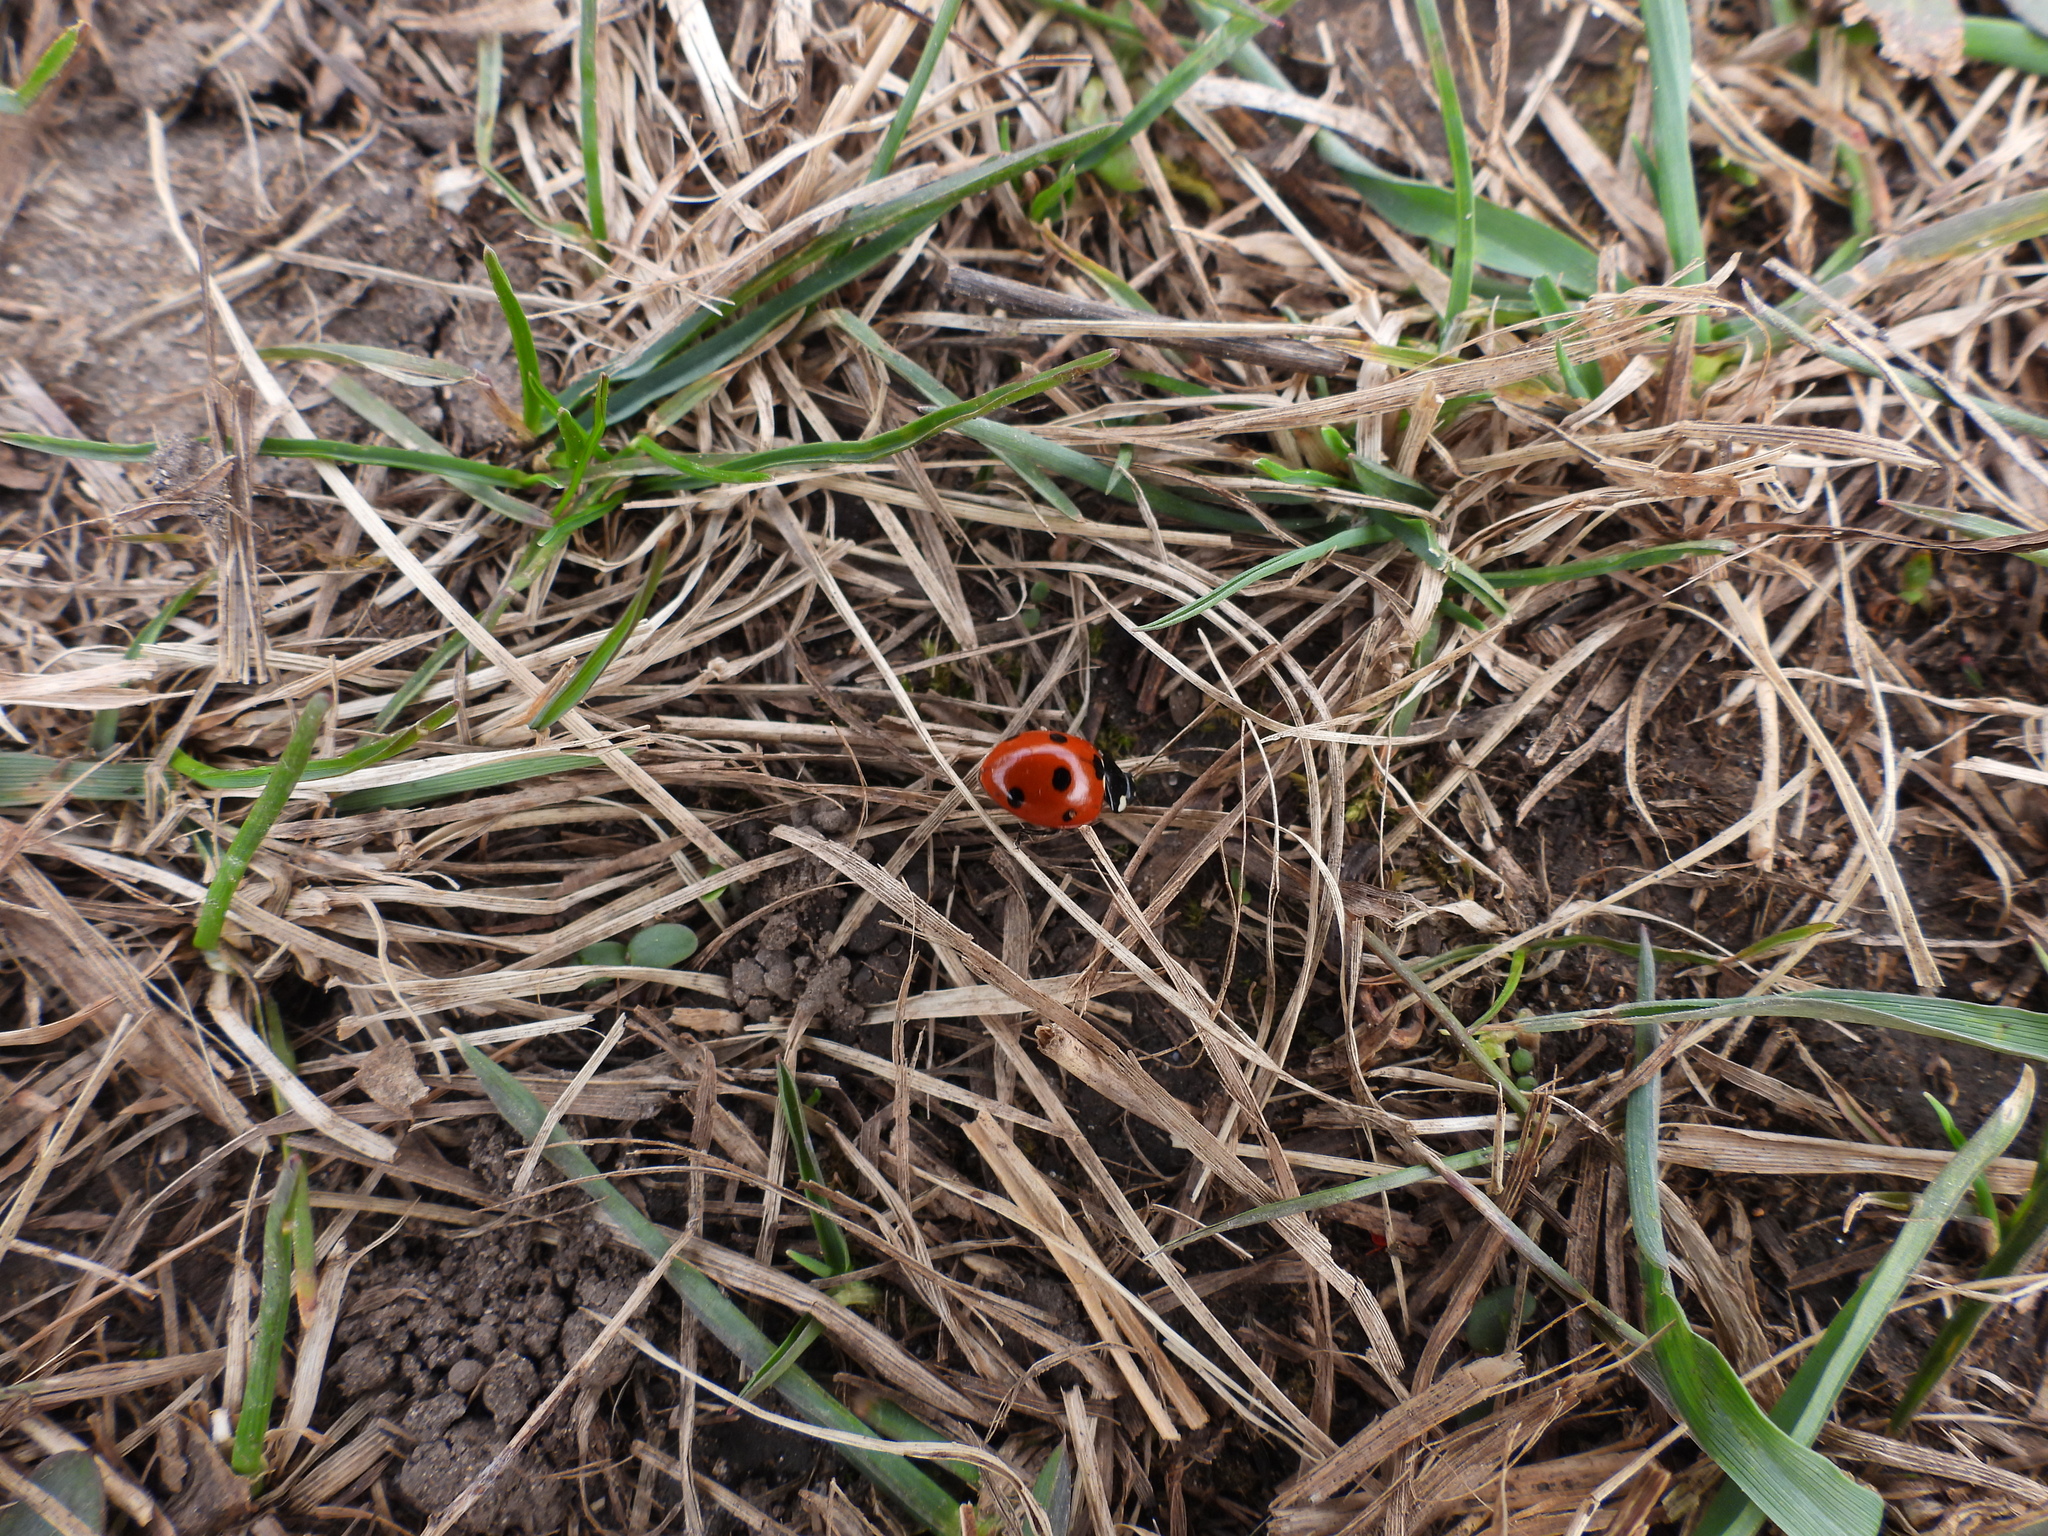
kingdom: Animalia
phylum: Arthropoda
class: Insecta
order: Coleoptera
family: Coccinellidae
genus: Coccinella
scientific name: Coccinella septempunctata
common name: Sevenspotted lady beetle
